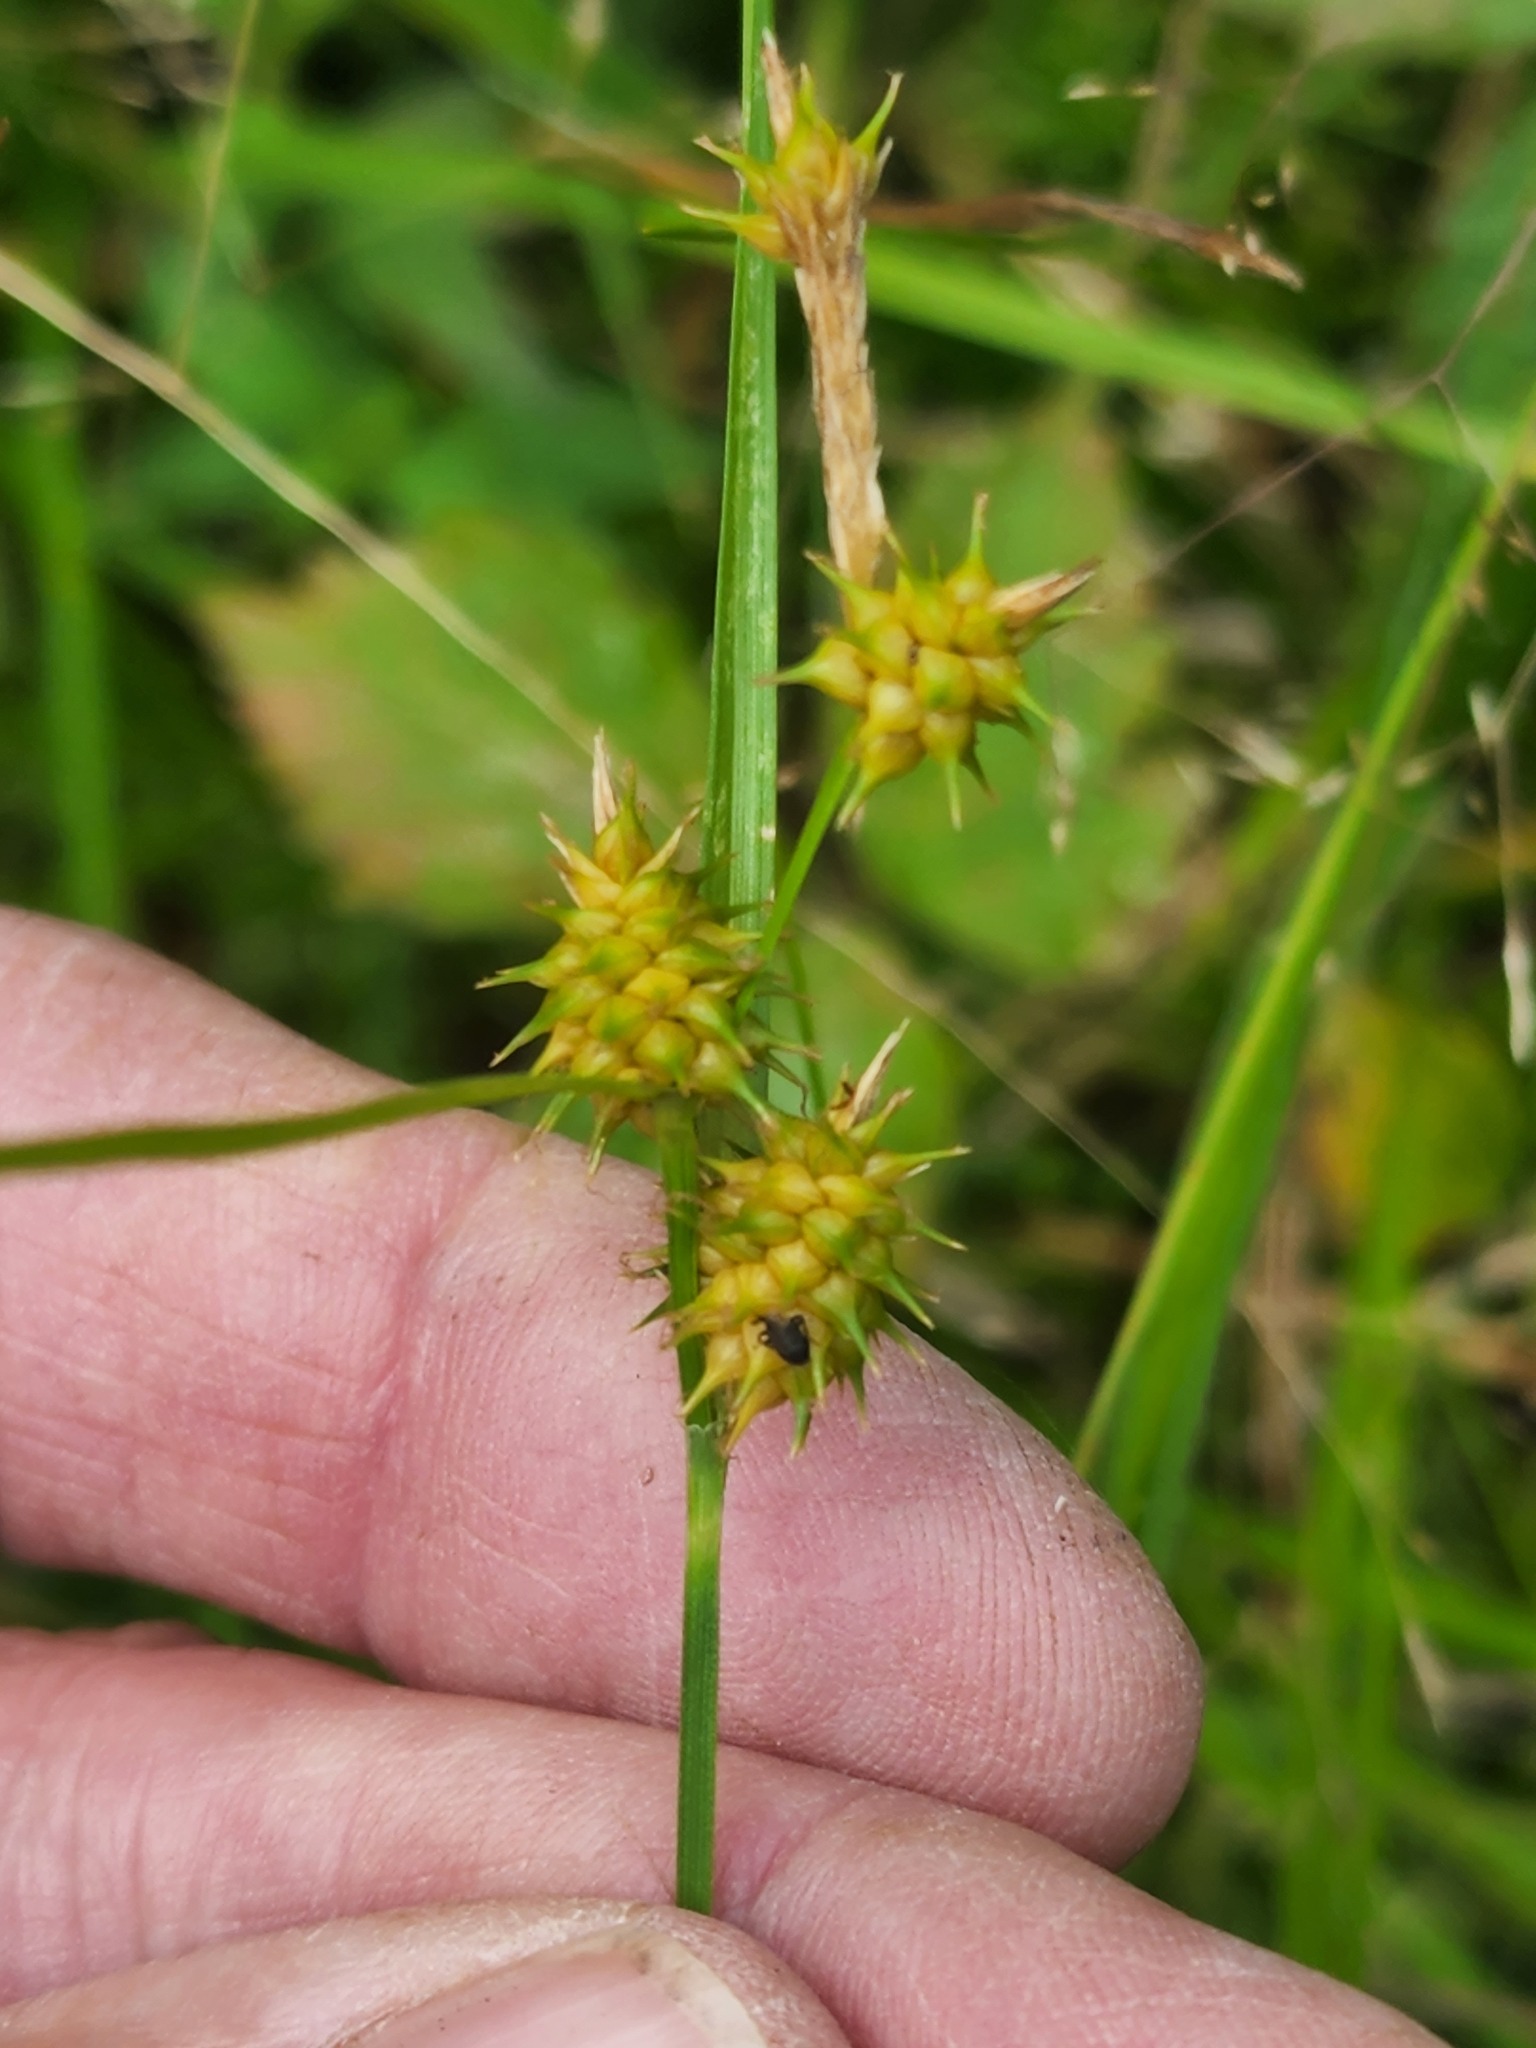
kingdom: Plantae
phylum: Tracheophyta
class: Liliopsida
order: Poales
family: Cyperaceae
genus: Carex
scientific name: Carex cryptolepis
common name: Northeastern sedge
